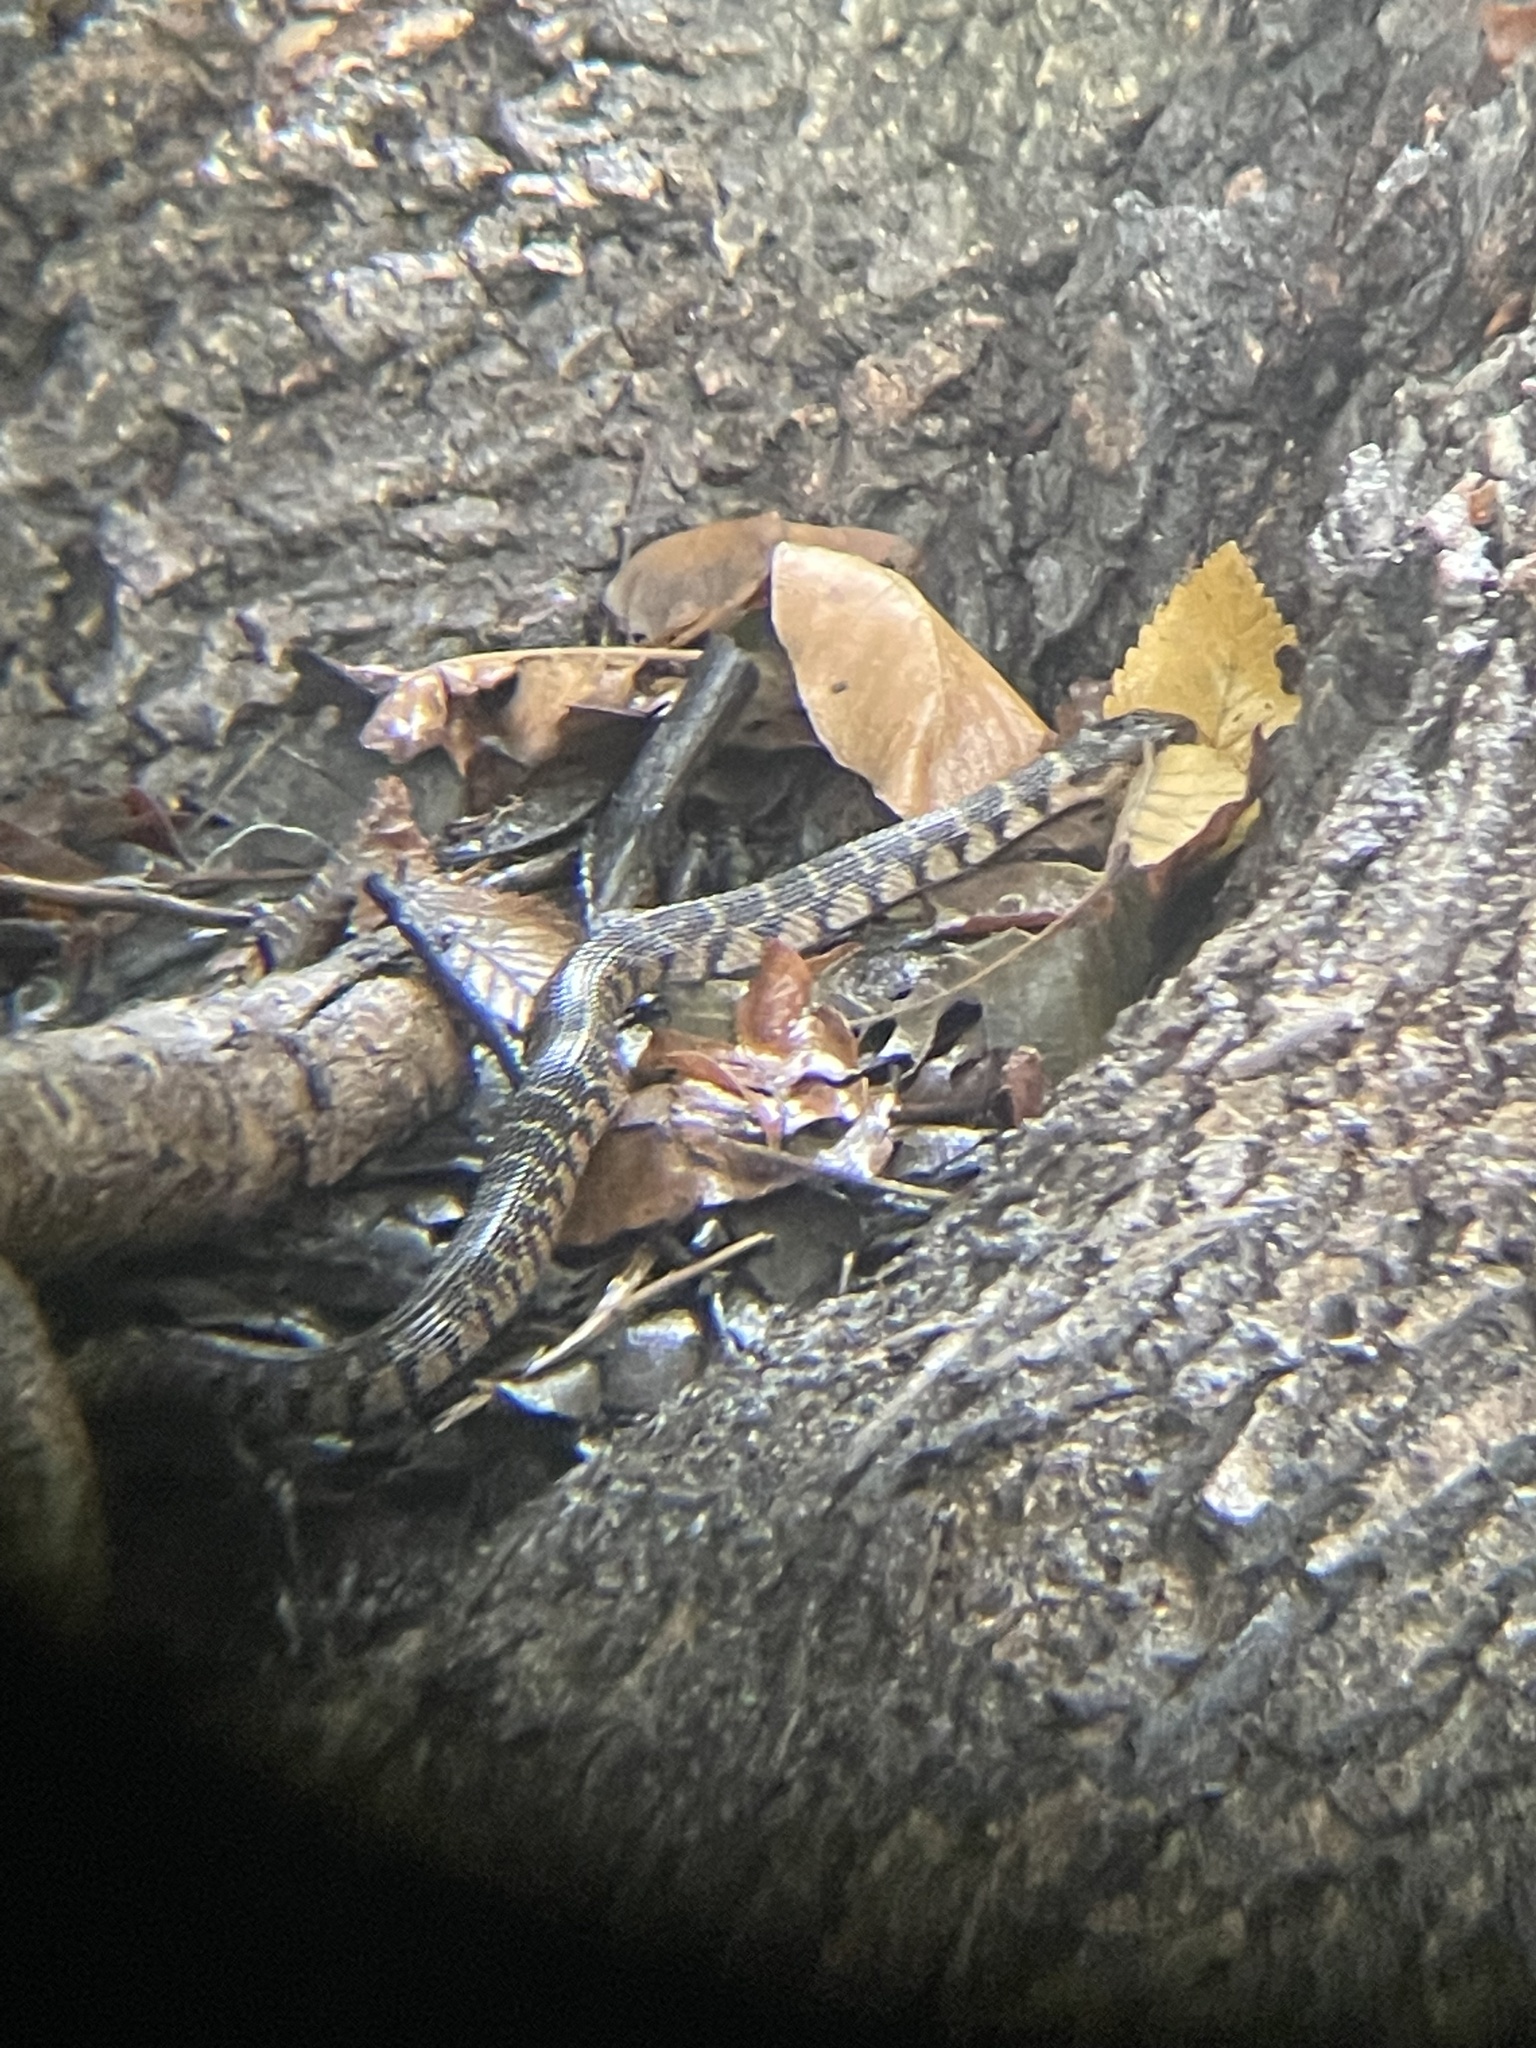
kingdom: Animalia
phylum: Chordata
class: Squamata
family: Colubridae
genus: Nerodia
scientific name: Nerodia erythrogaster
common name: Plainbelly water snake
